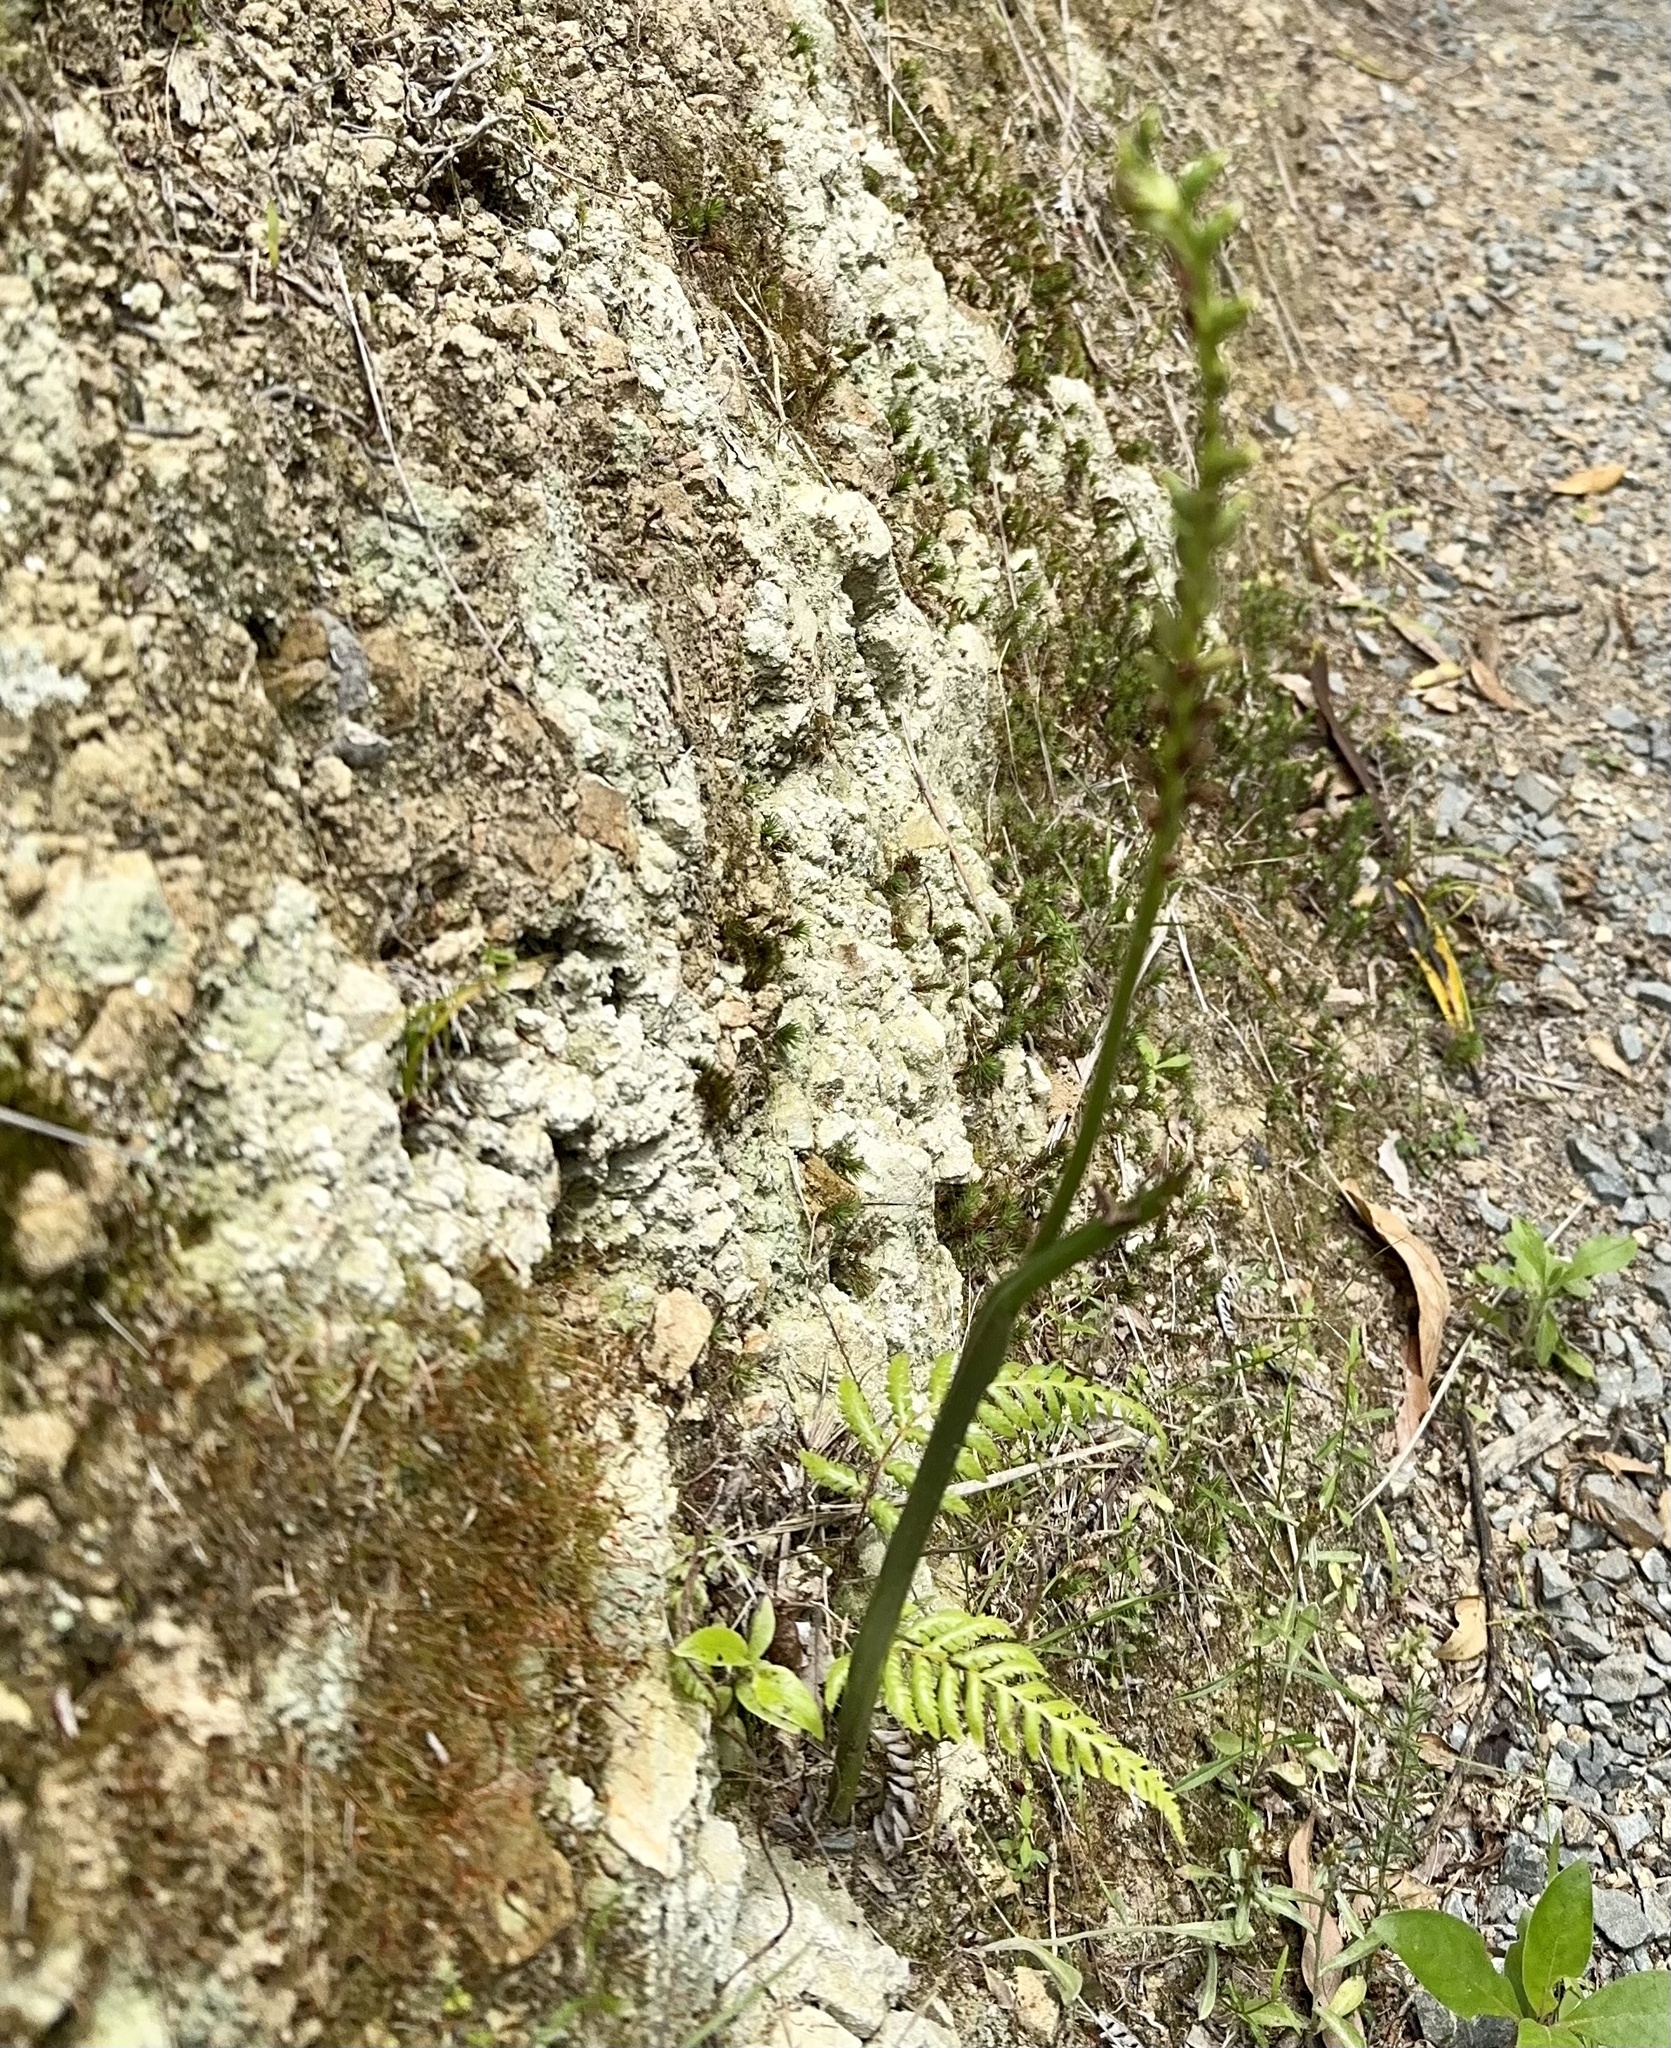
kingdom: Plantae
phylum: Tracheophyta
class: Liliopsida
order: Asparagales
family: Orchidaceae
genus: Microtis
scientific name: Microtis unifolia
